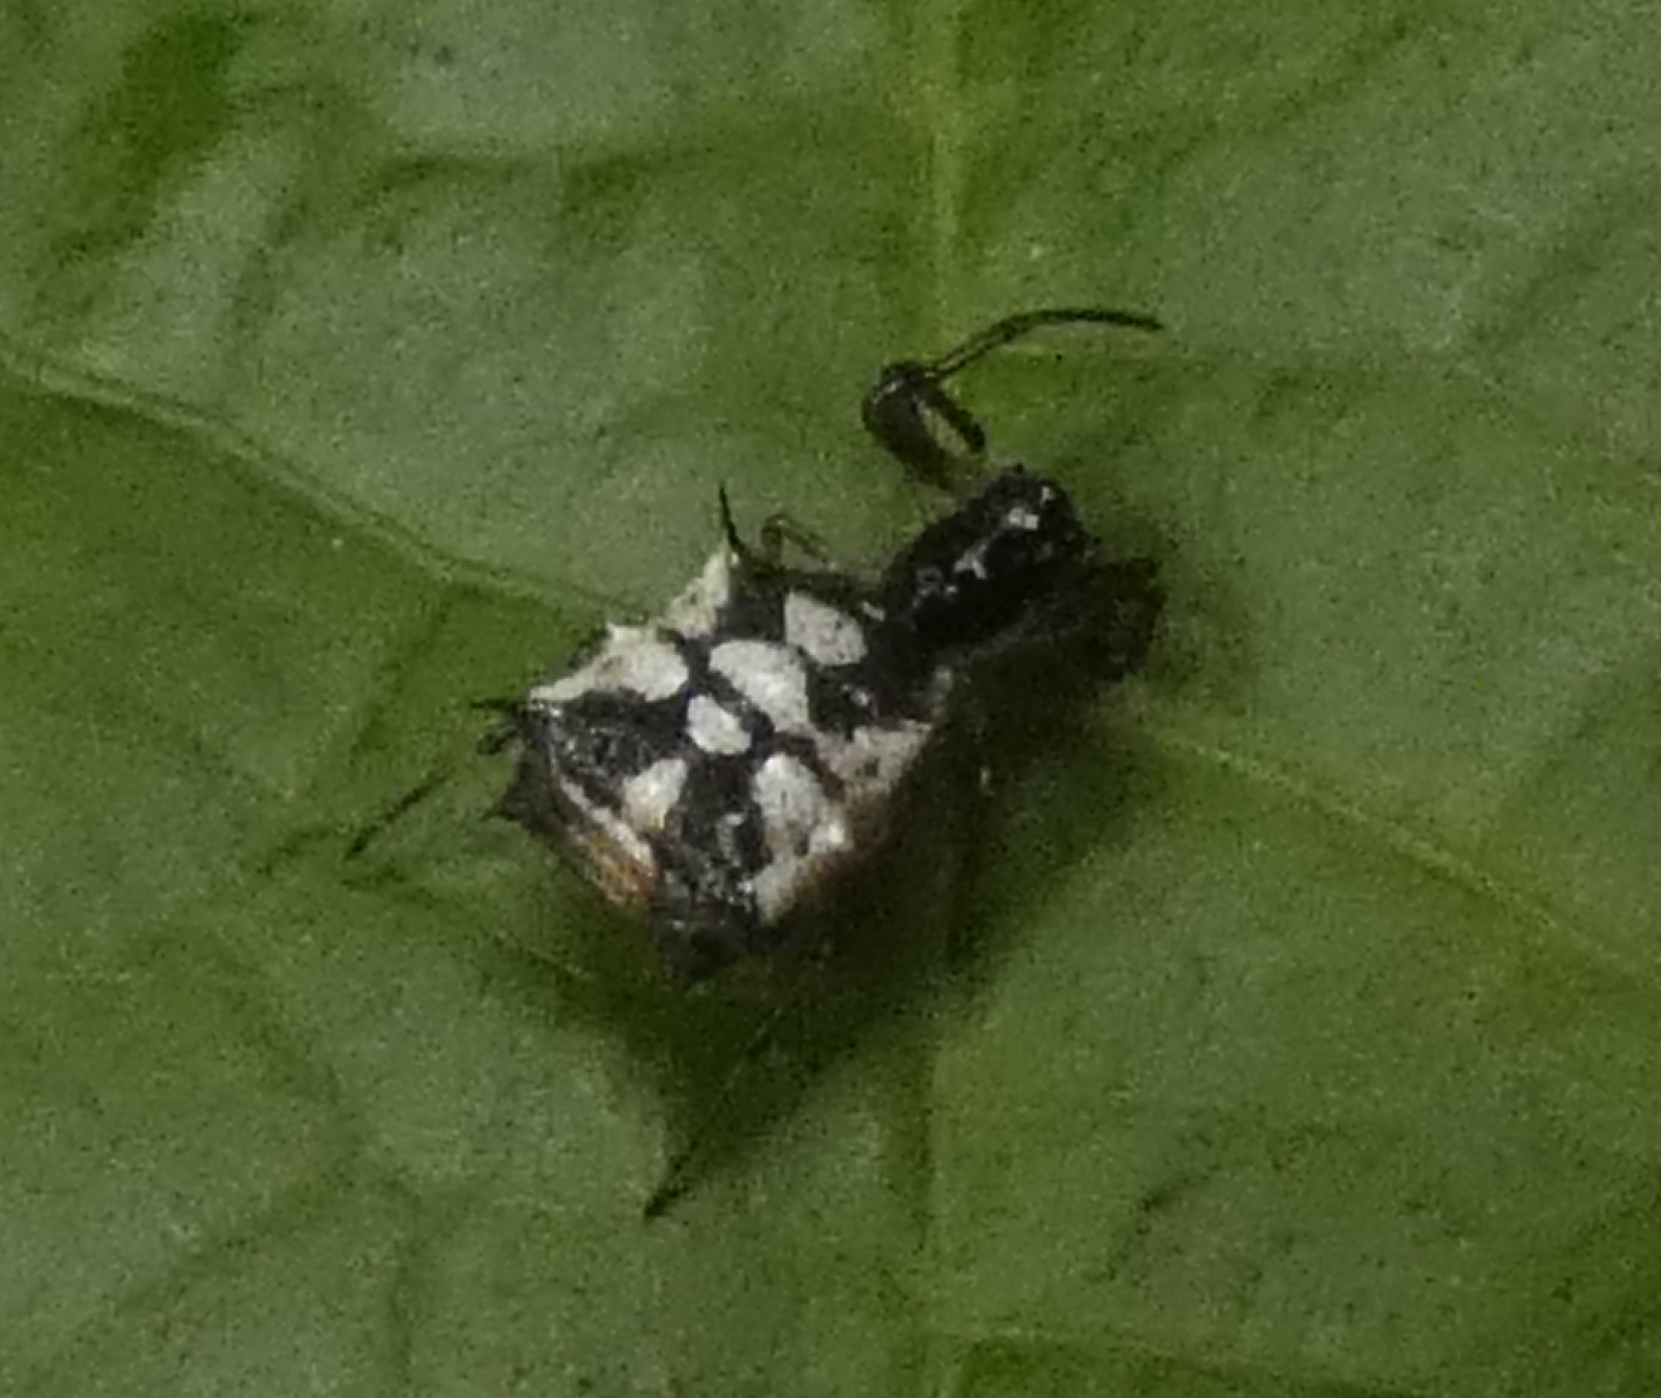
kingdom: Animalia
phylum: Arthropoda
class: Arachnida
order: Araneae
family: Araneidae
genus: Micrathena
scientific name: Micrathena picta
